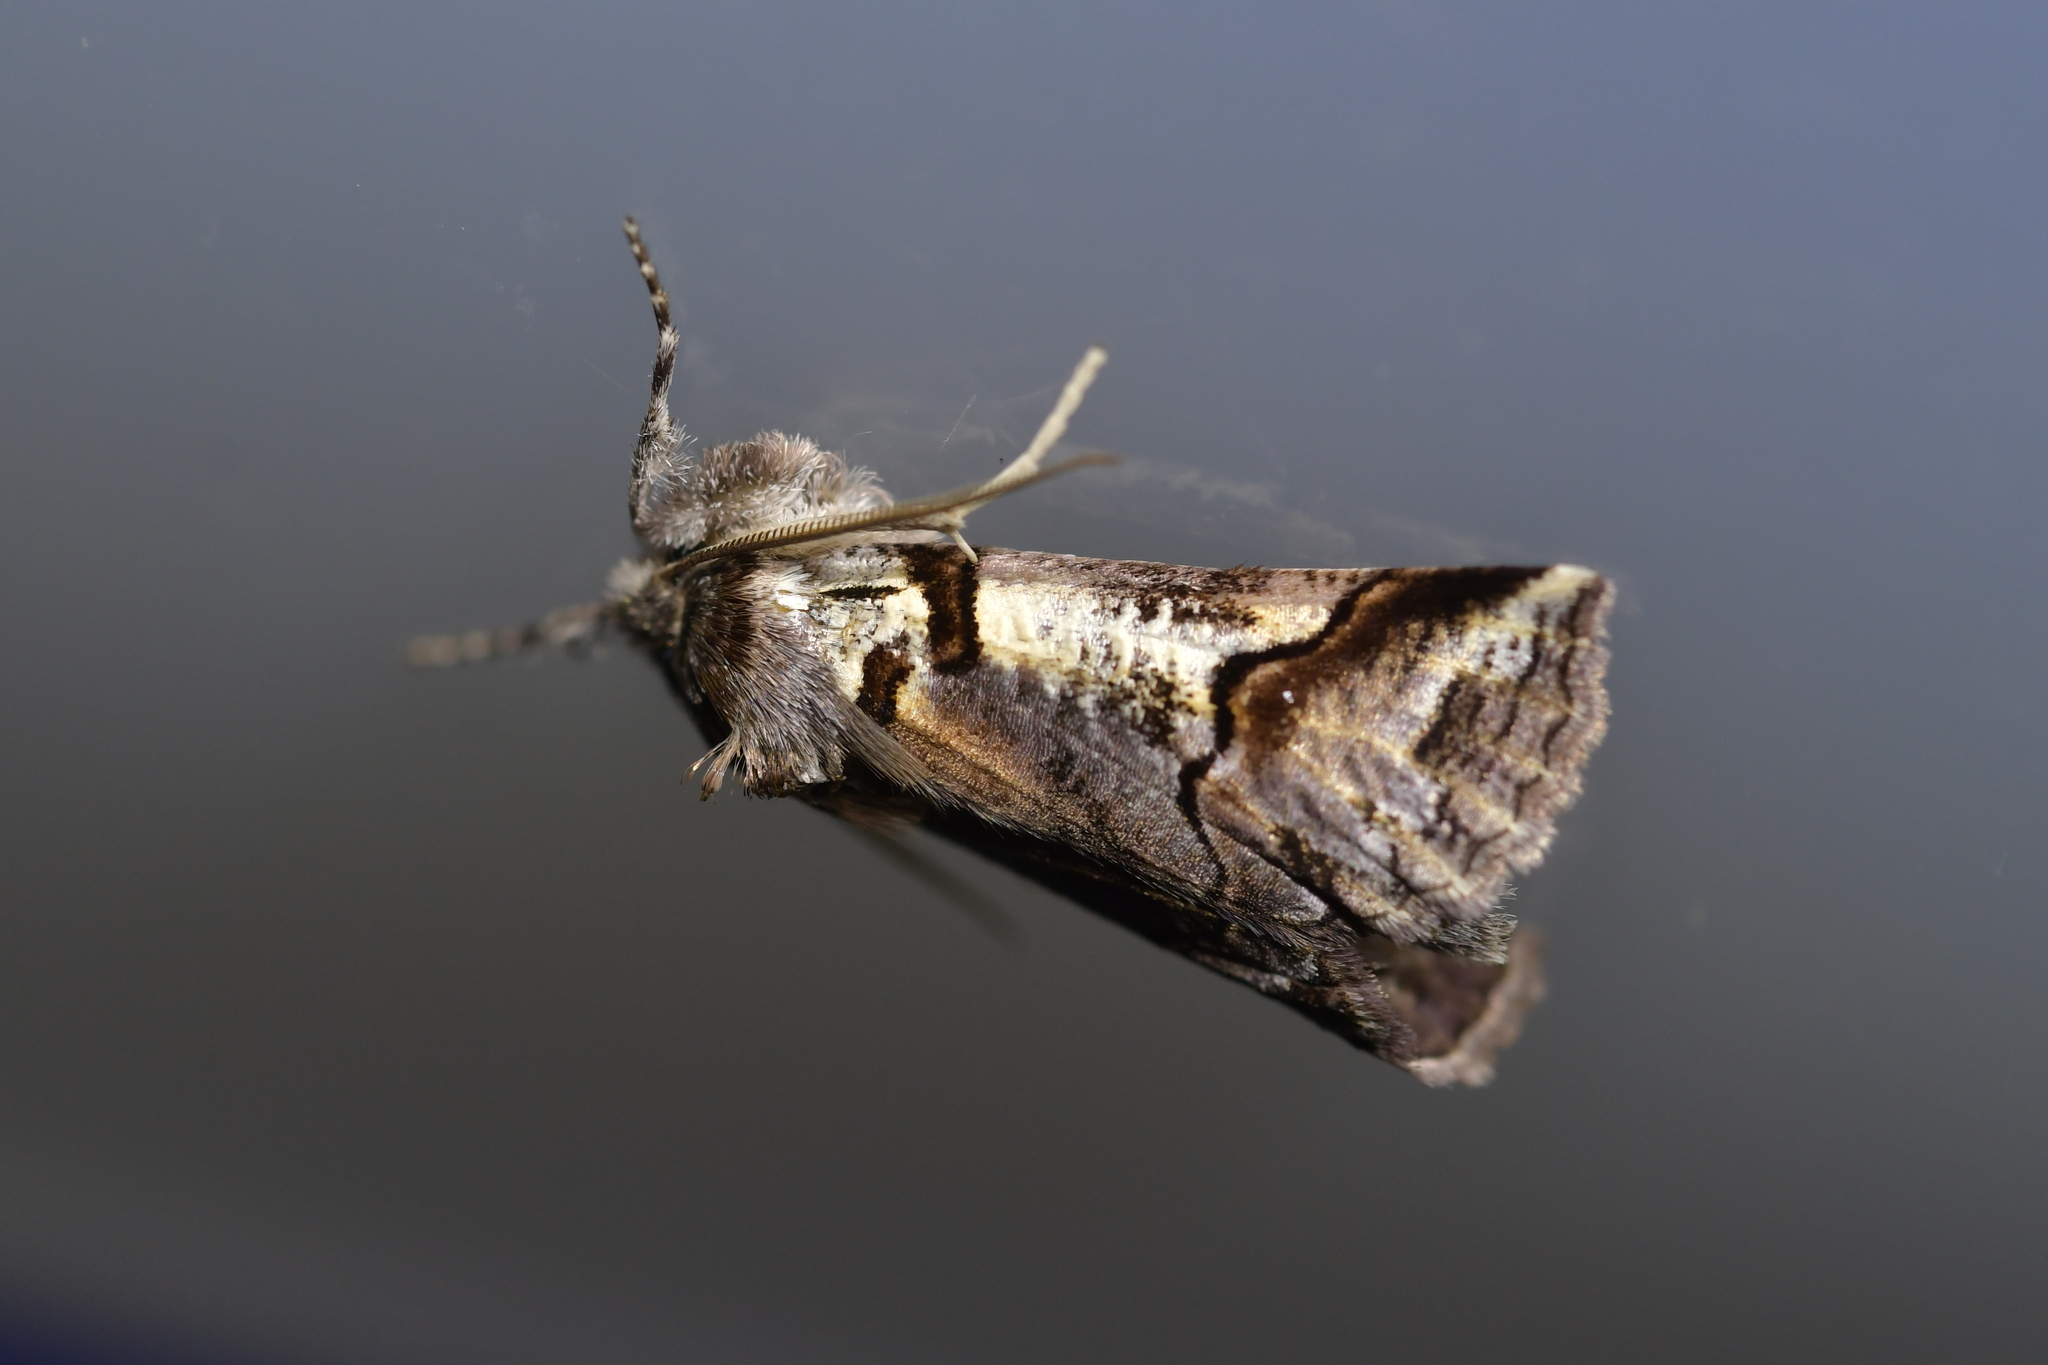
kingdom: Animalia
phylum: Arthropoda
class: Insecta
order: Lepidoptera
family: Geometridae
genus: Declana
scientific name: Declana
